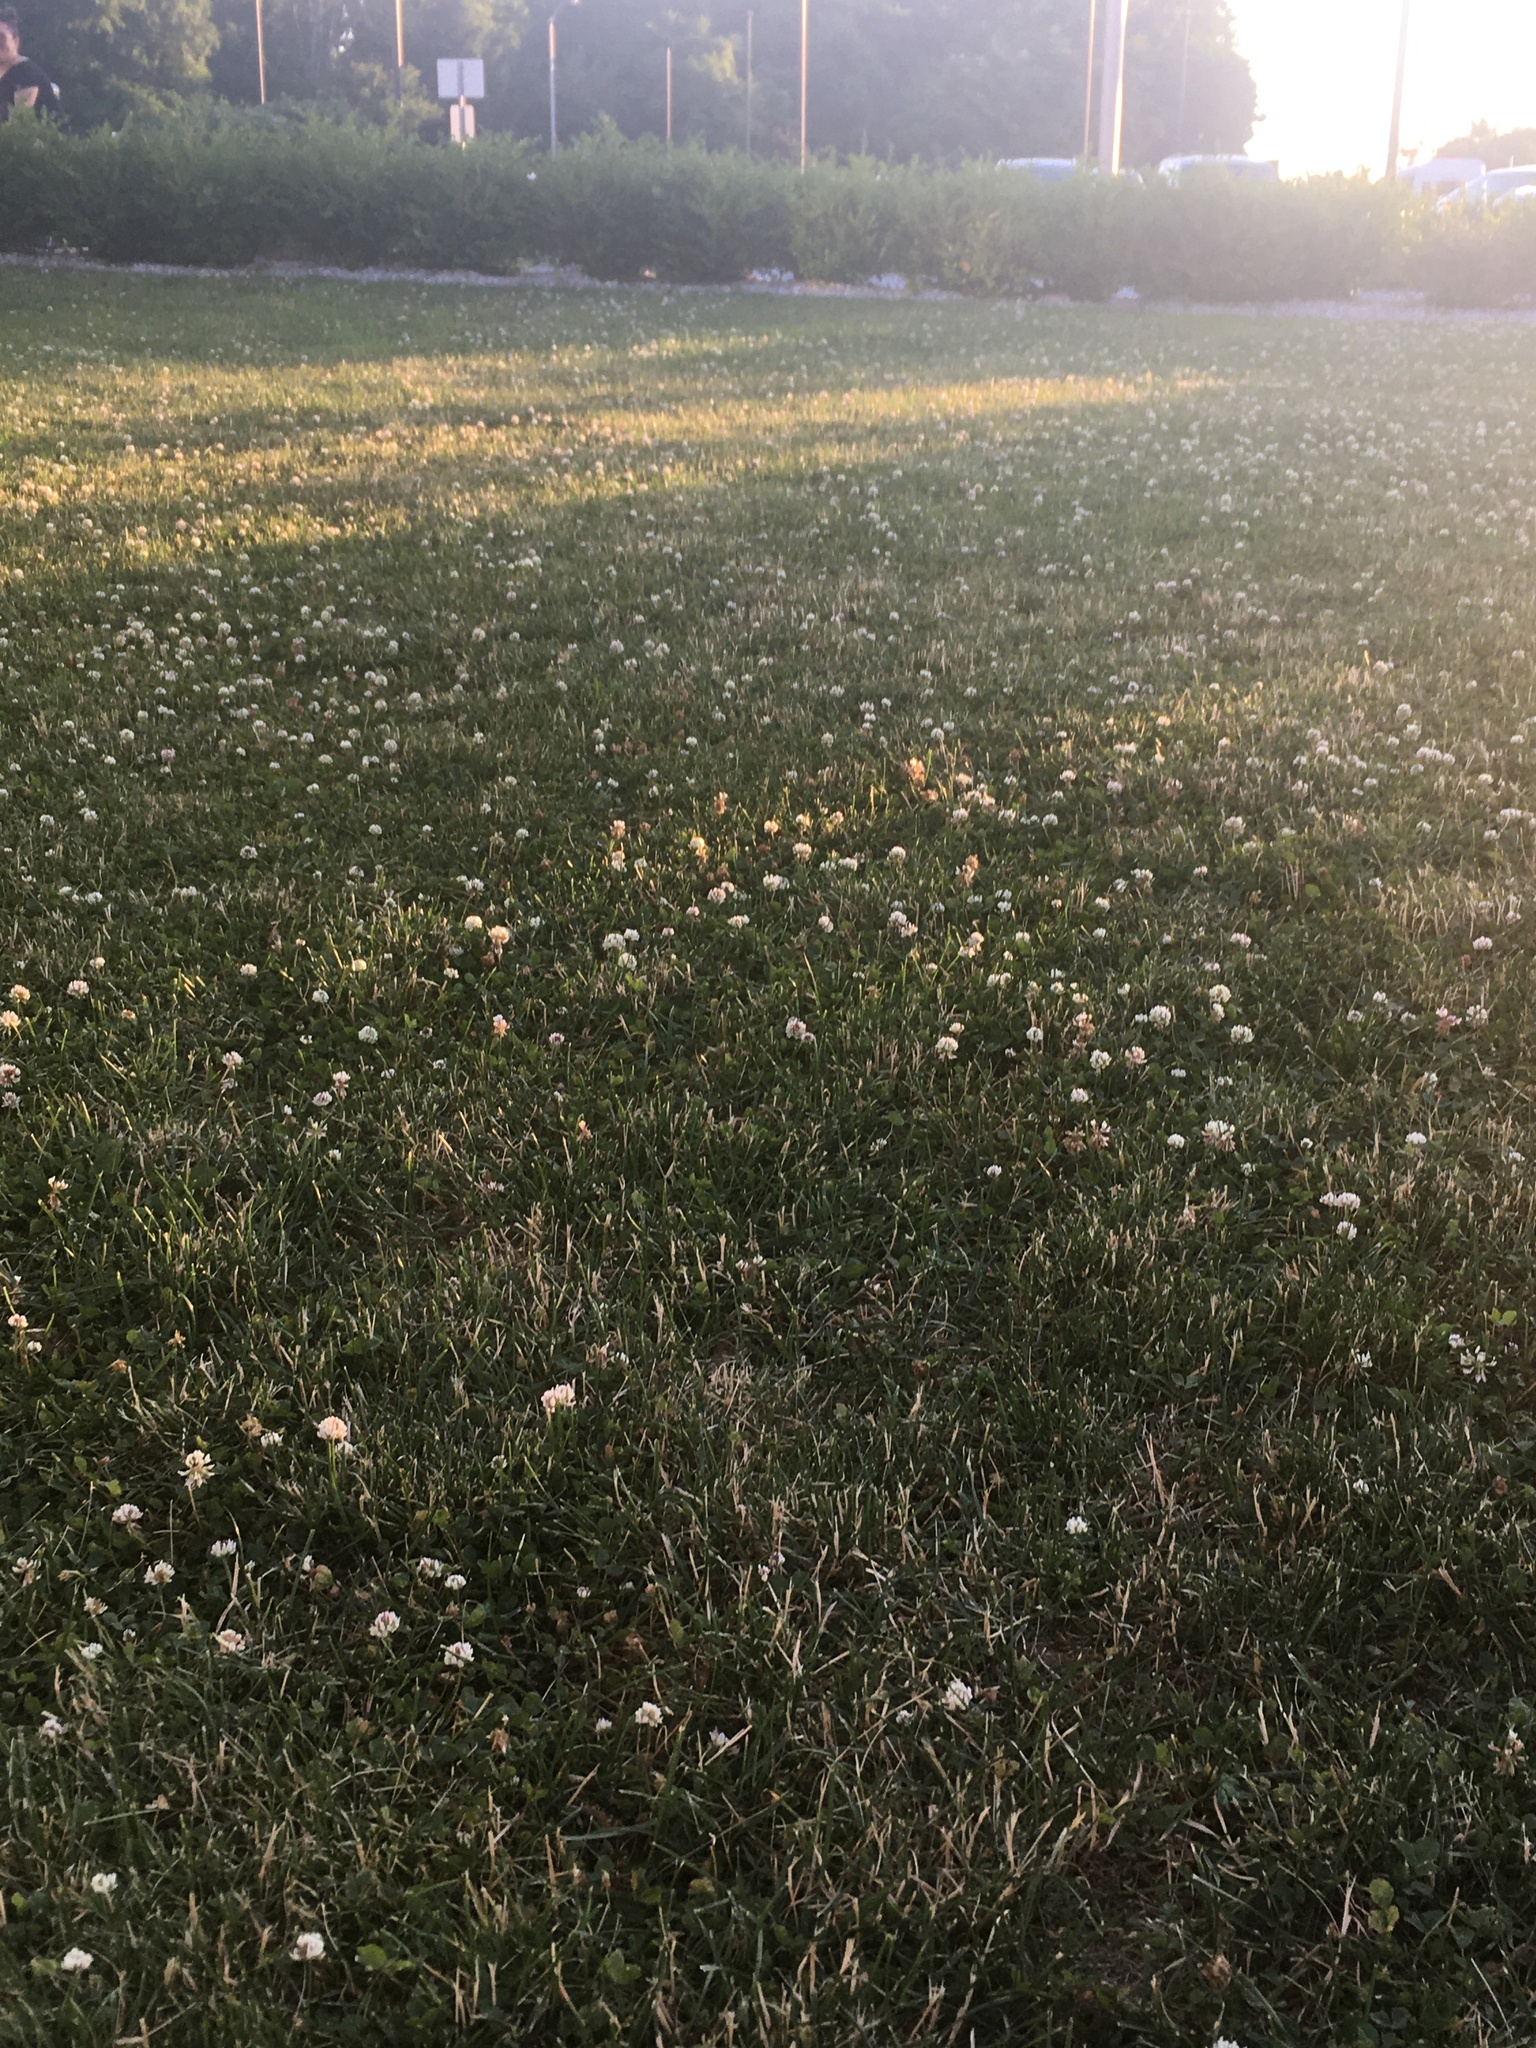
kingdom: Plantae
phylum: Tracheophyta
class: Magnoliopsida
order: Fabales
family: Fabaceae
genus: Trifolium
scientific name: Trifolium repens
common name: White clover
